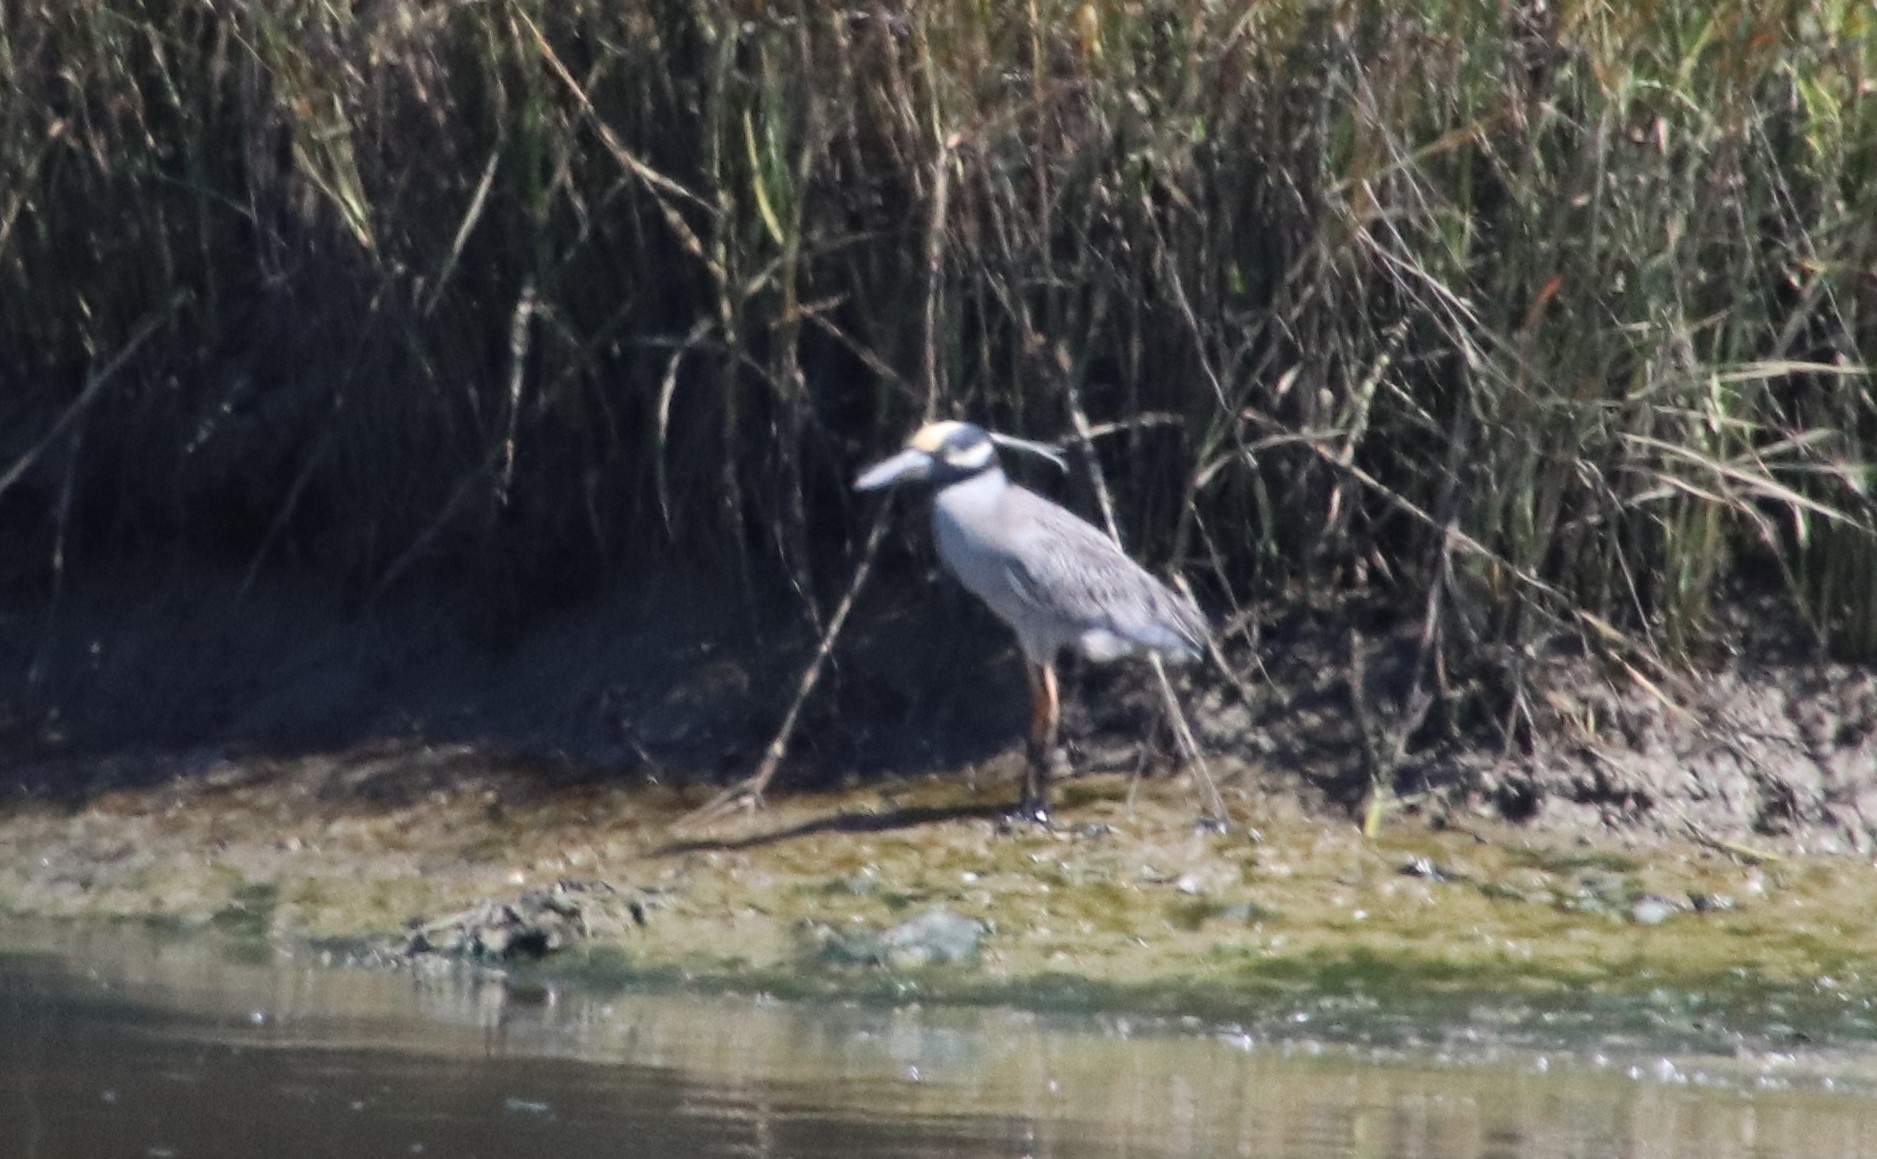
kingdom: Animalia
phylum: Chordata
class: Aves
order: Pelecaniformes
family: Ardeidae
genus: Nyctanassa
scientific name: Nyctanassa violacea
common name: Yellow-crowned night heron
